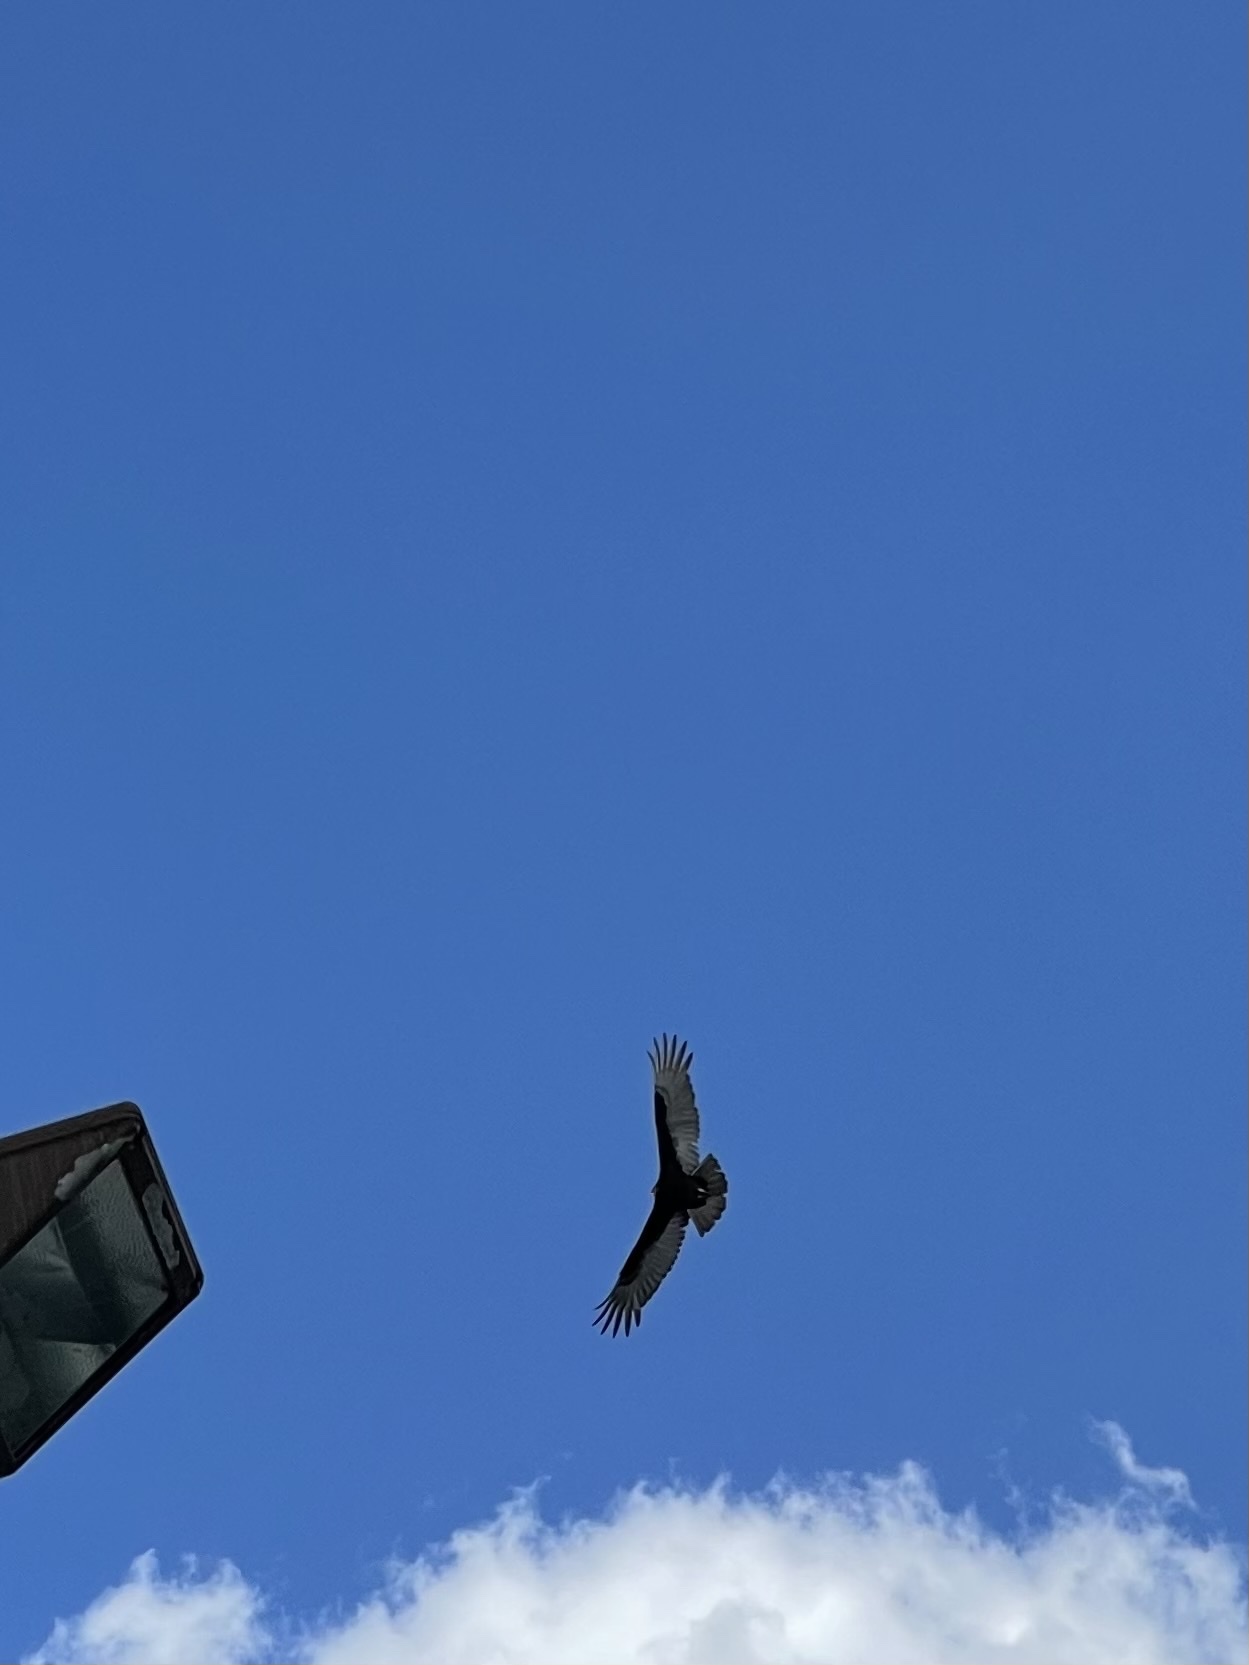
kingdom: Animalia
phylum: Chordata
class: Aves
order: Accipitriformes
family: Cathartidae
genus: Cathartes
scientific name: Cathartes aura
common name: Turkey vulture
